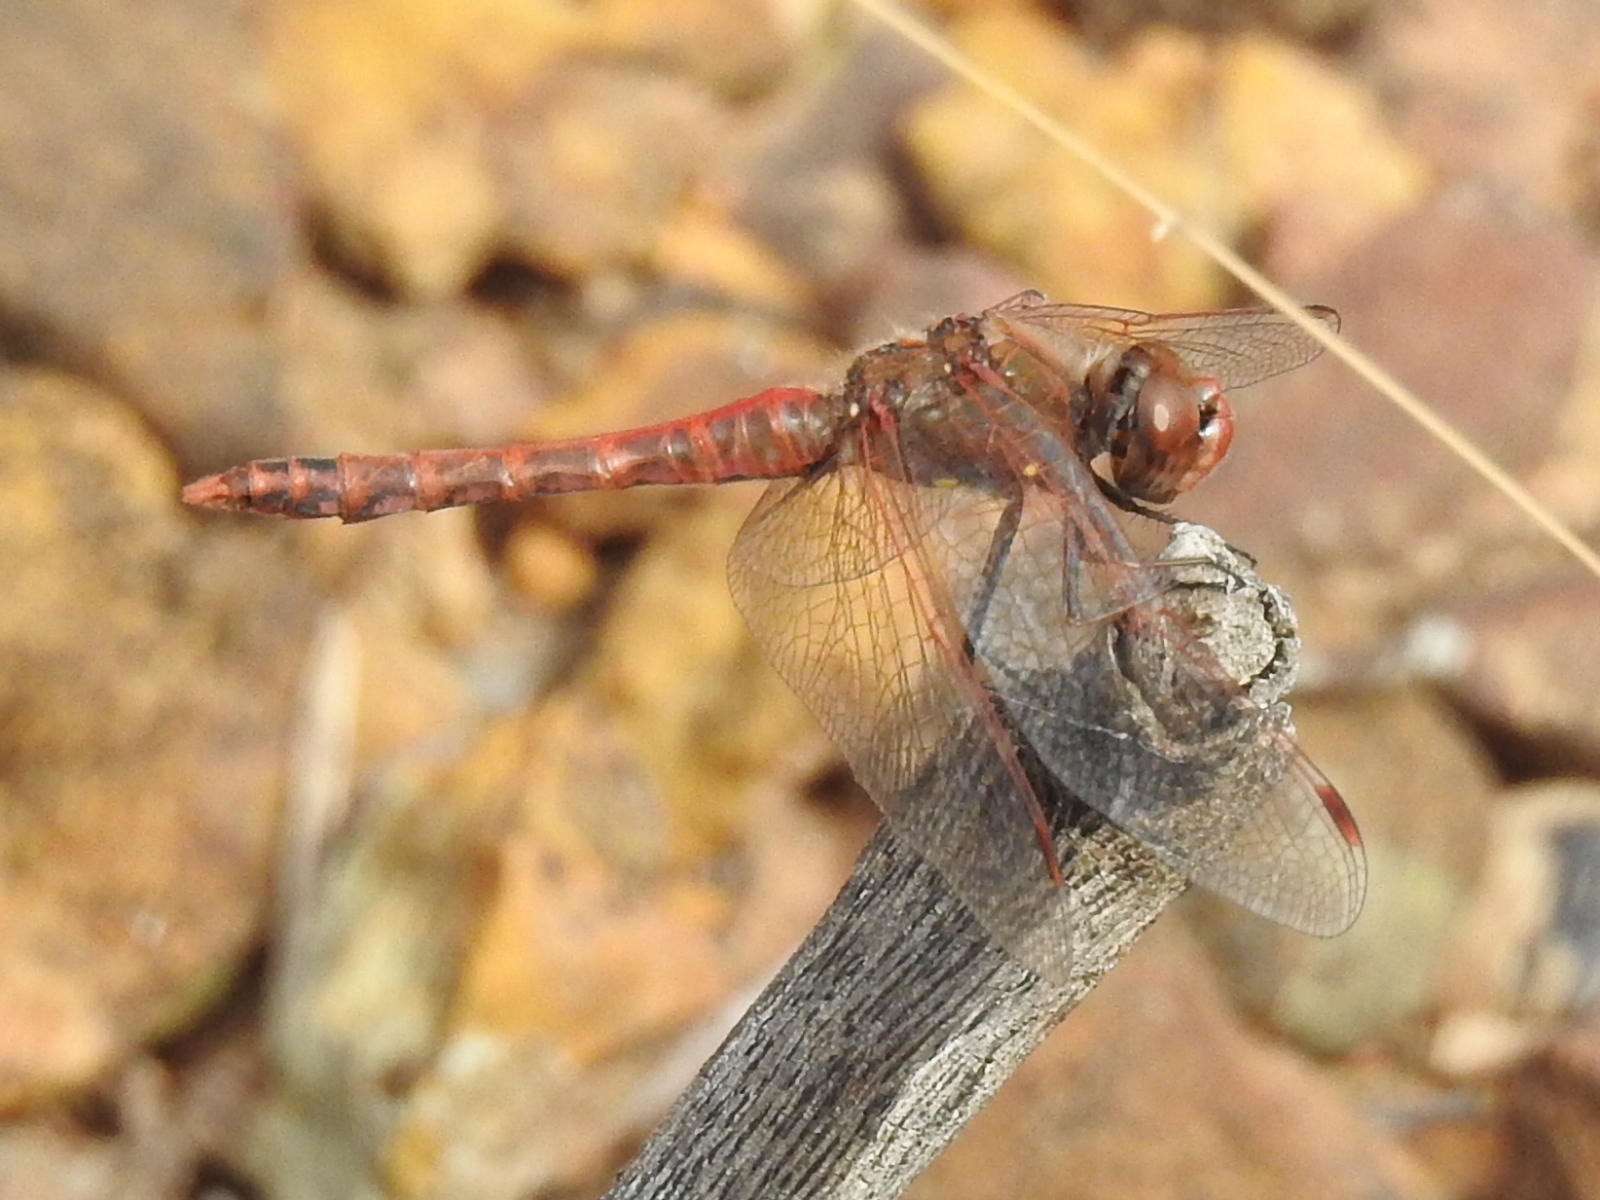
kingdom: Animalia
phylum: Arthropoda
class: Insecta
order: Odonata
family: Libellulidae
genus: Sympetrum
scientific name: Sympetrum corruptum
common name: Variegated meadowhawk
